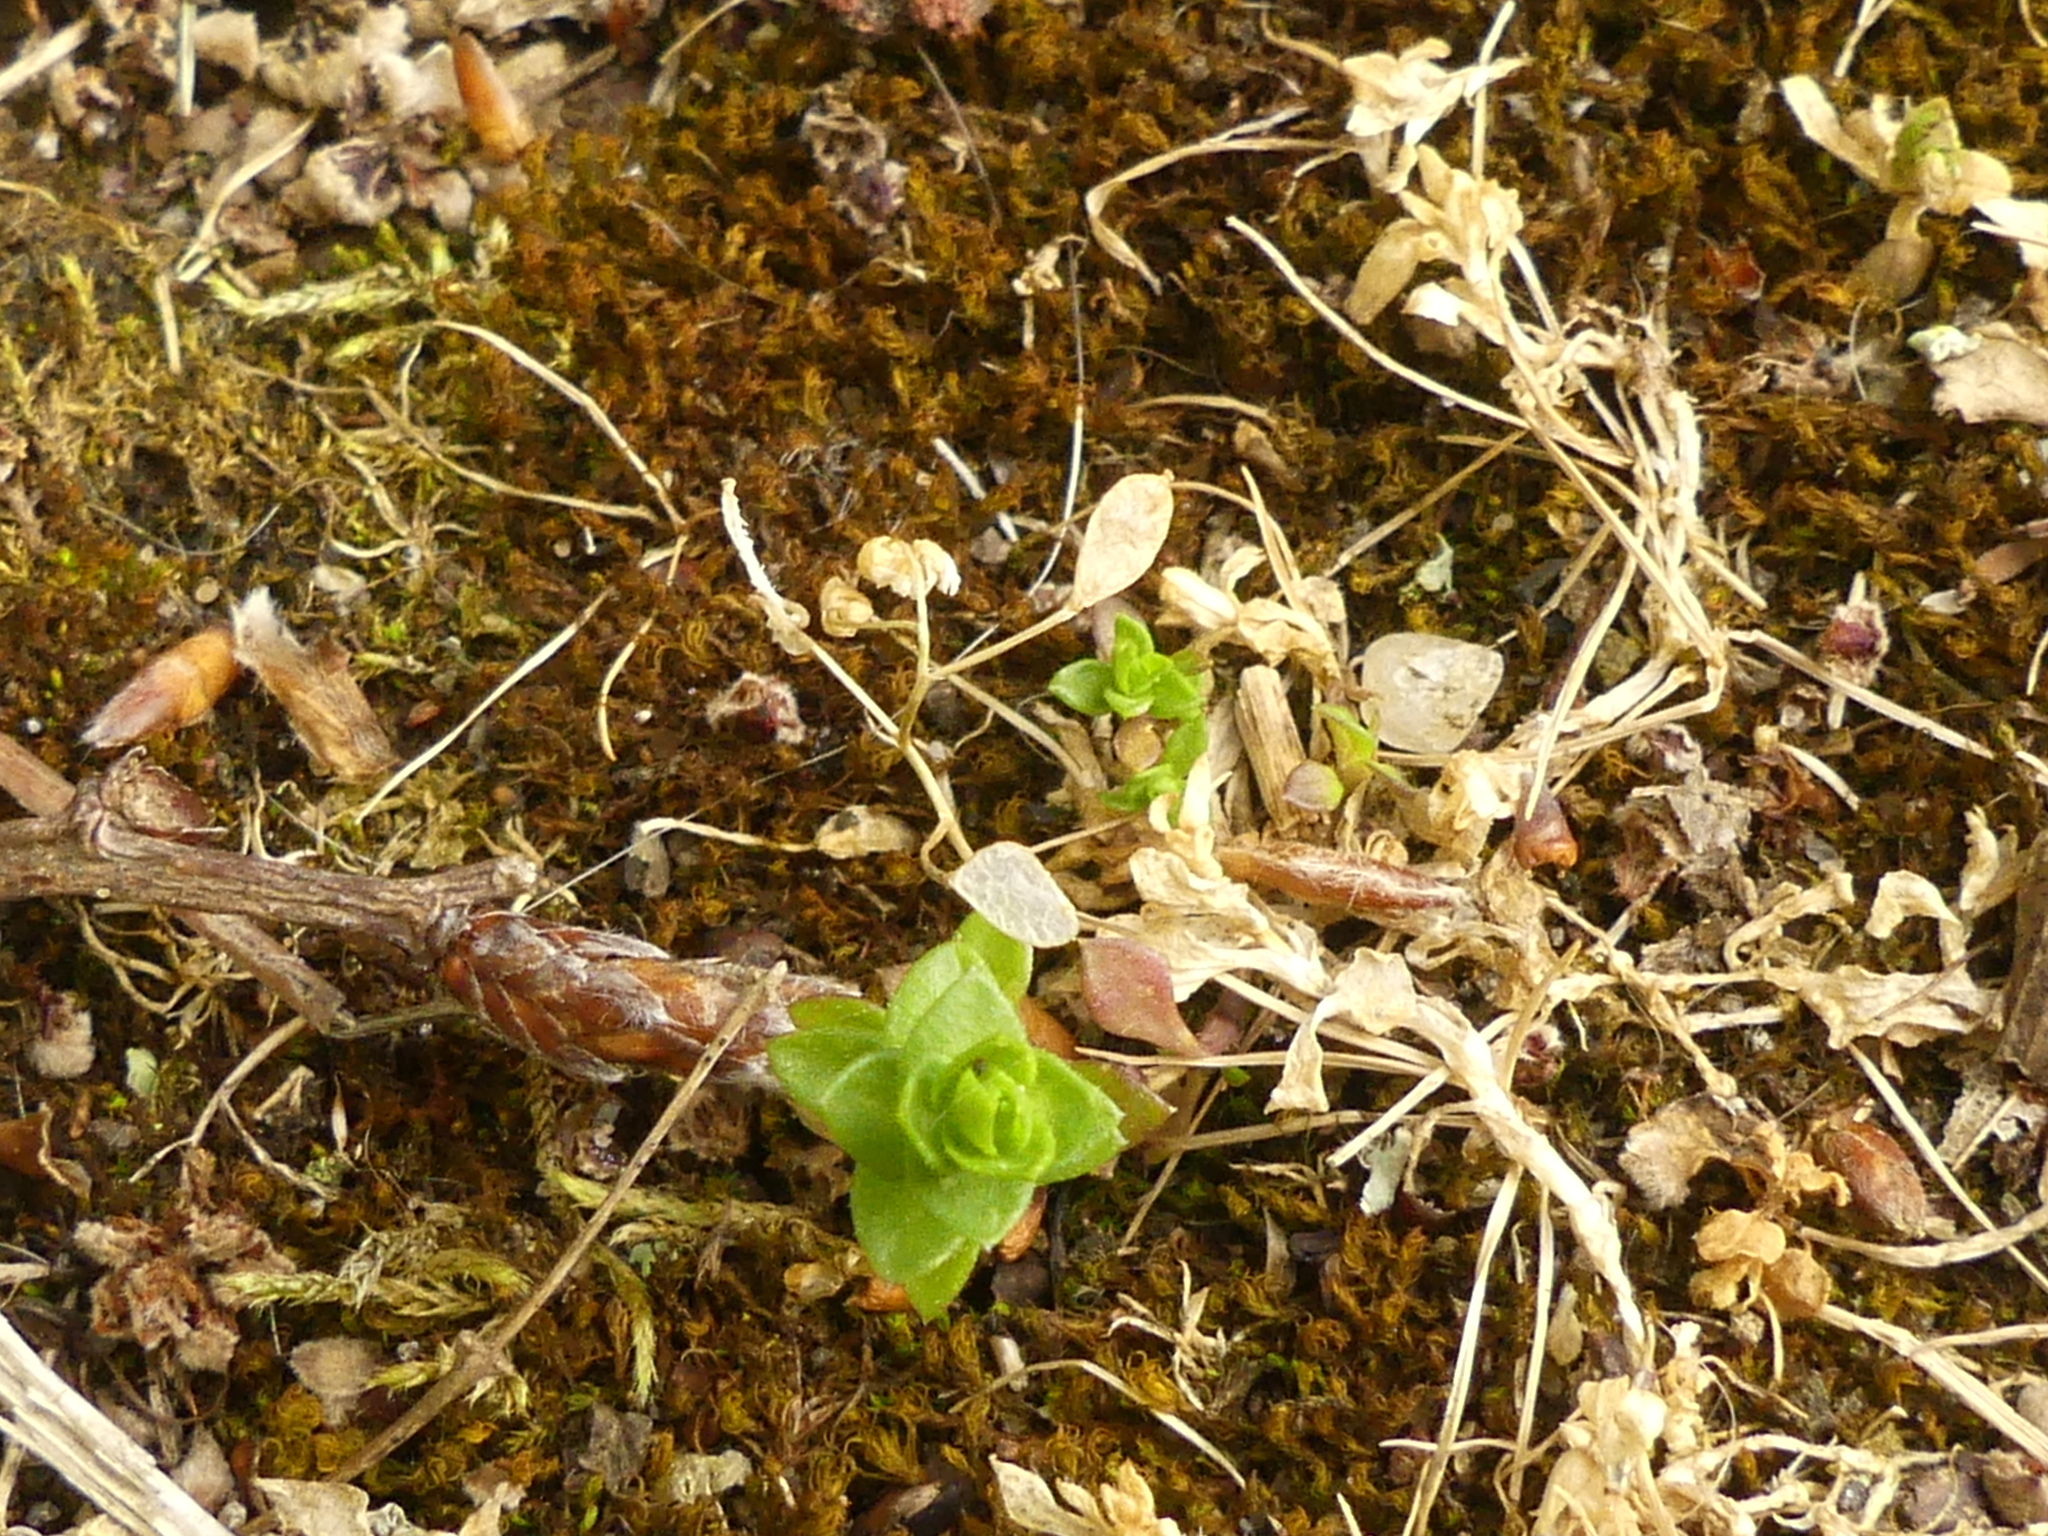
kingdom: Plantae
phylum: Tracheophyta
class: Magnoliopsida
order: Brassicales
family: Brassicaceae
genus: Draba
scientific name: Draba verna
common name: Spring draba
